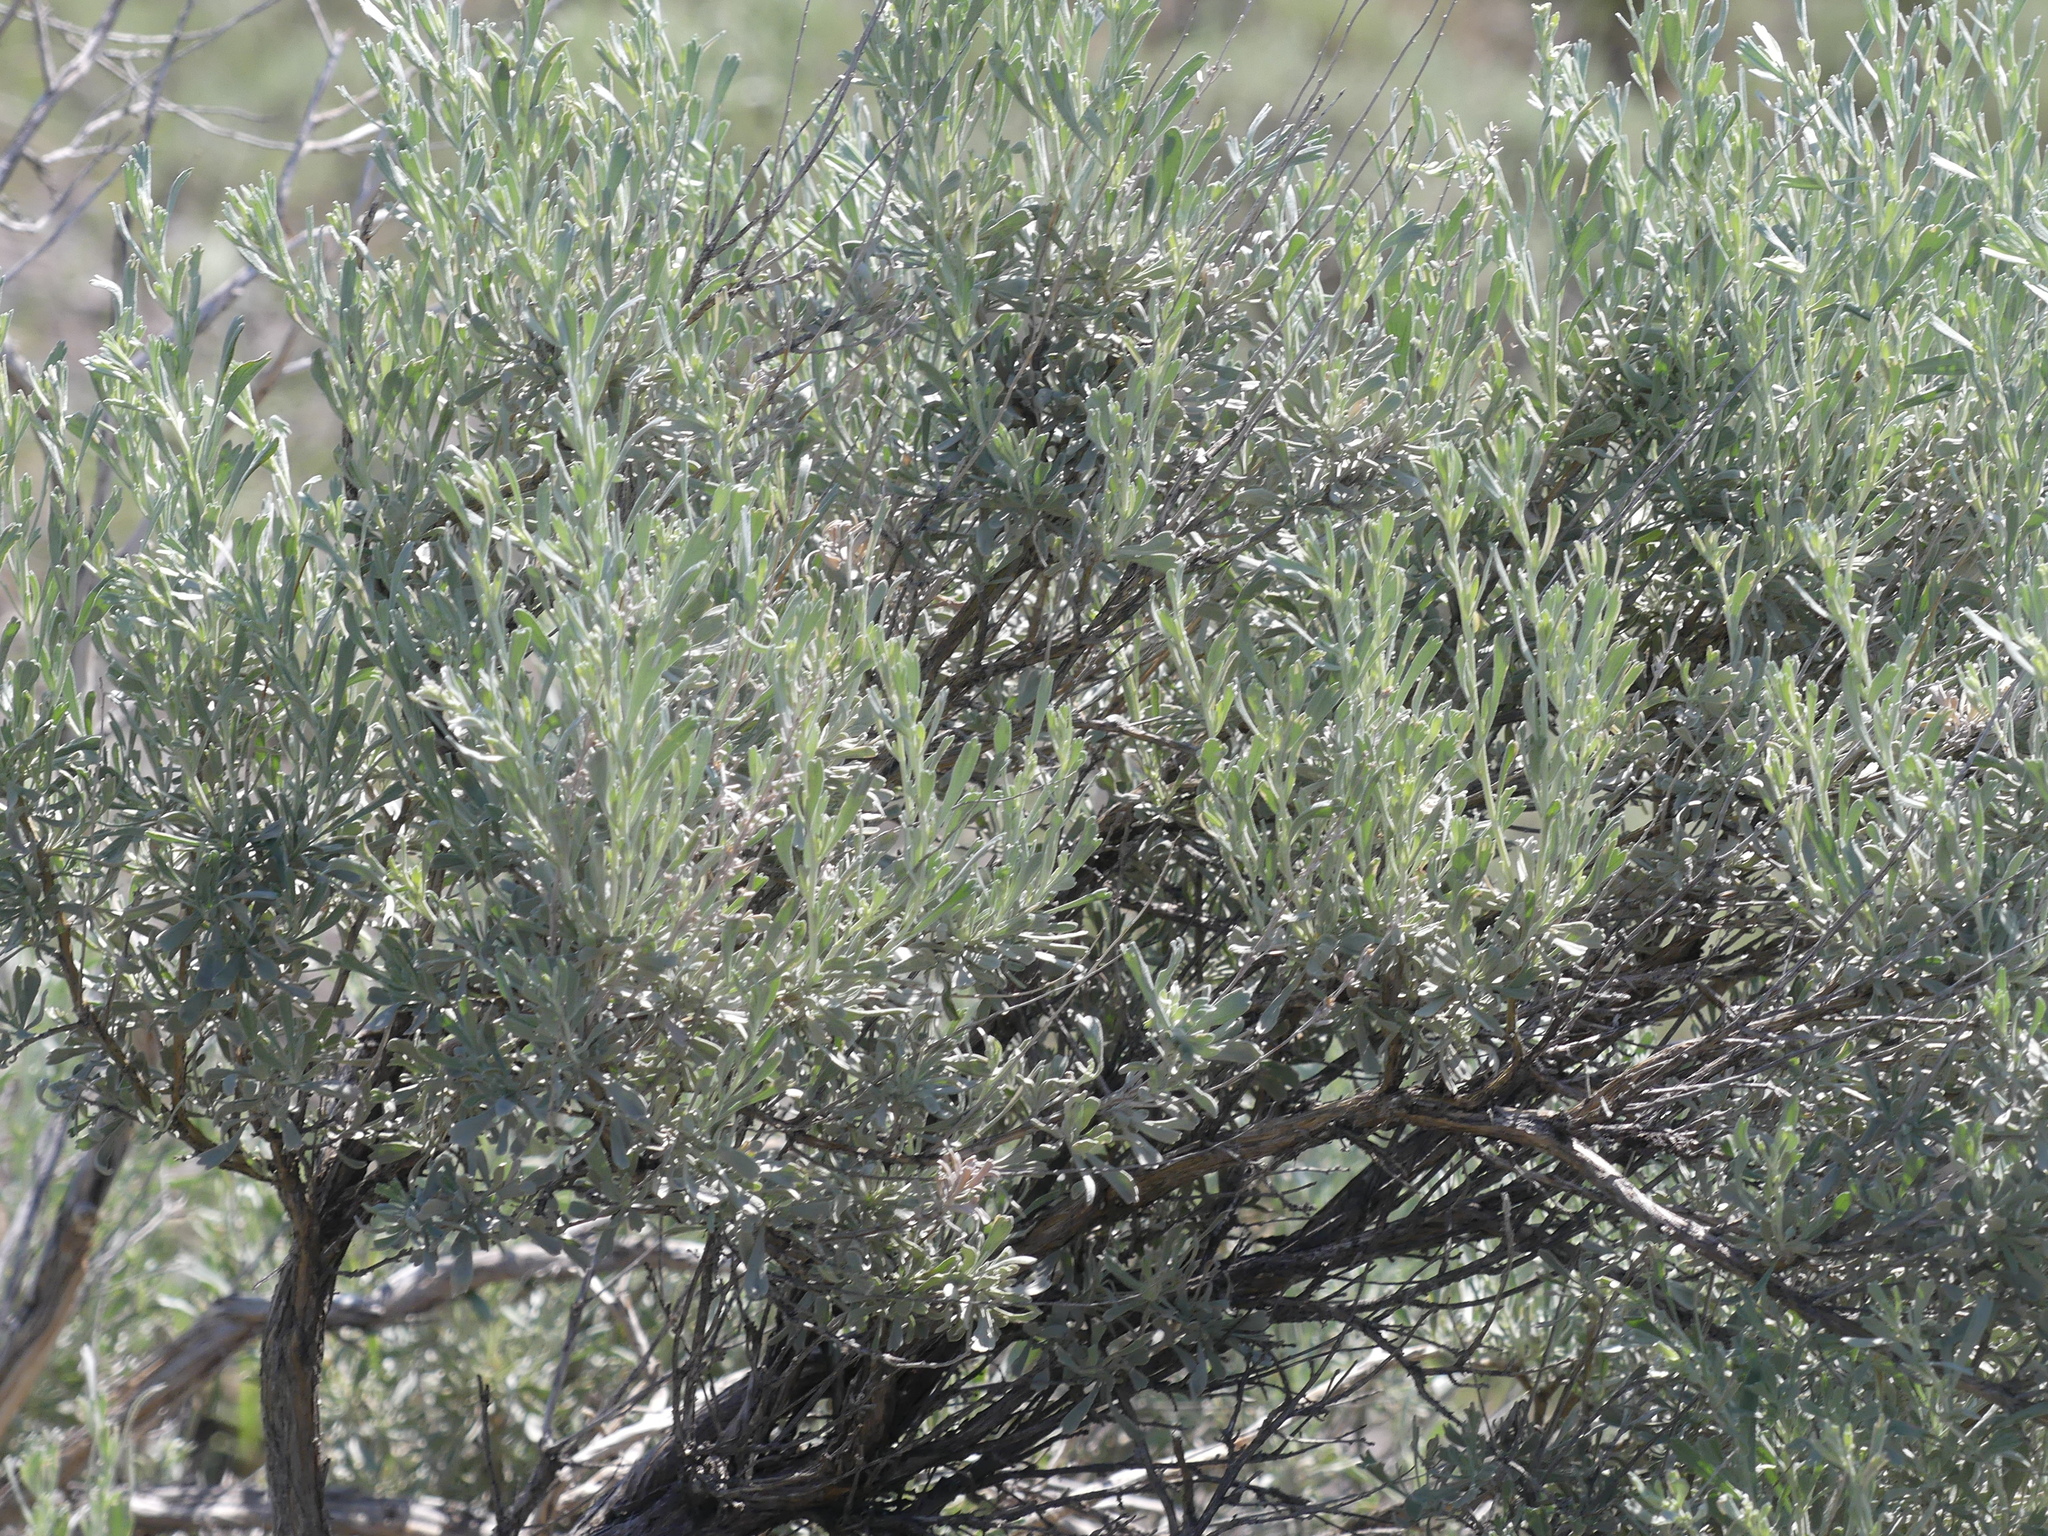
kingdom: Plantae
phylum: Tracheophyta
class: Magnoliopsida
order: Asterales
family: Asteraceae
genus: Artemisia
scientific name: Artemisia tridentata
